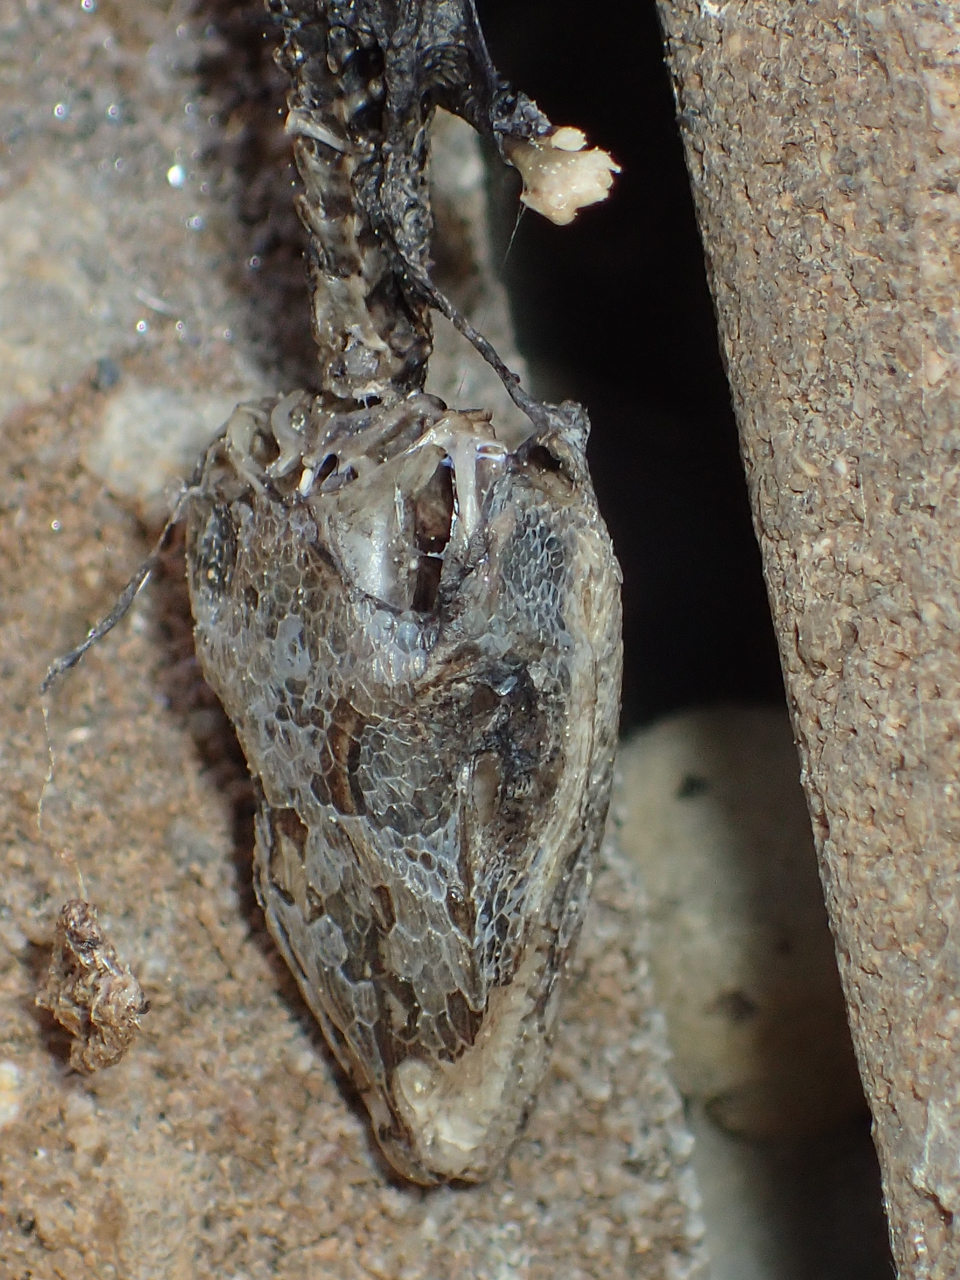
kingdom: Animalia
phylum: Chordata
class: Squamata
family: Dactyloidae
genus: Anolis
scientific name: Anolis carolinensis
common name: Green anole
